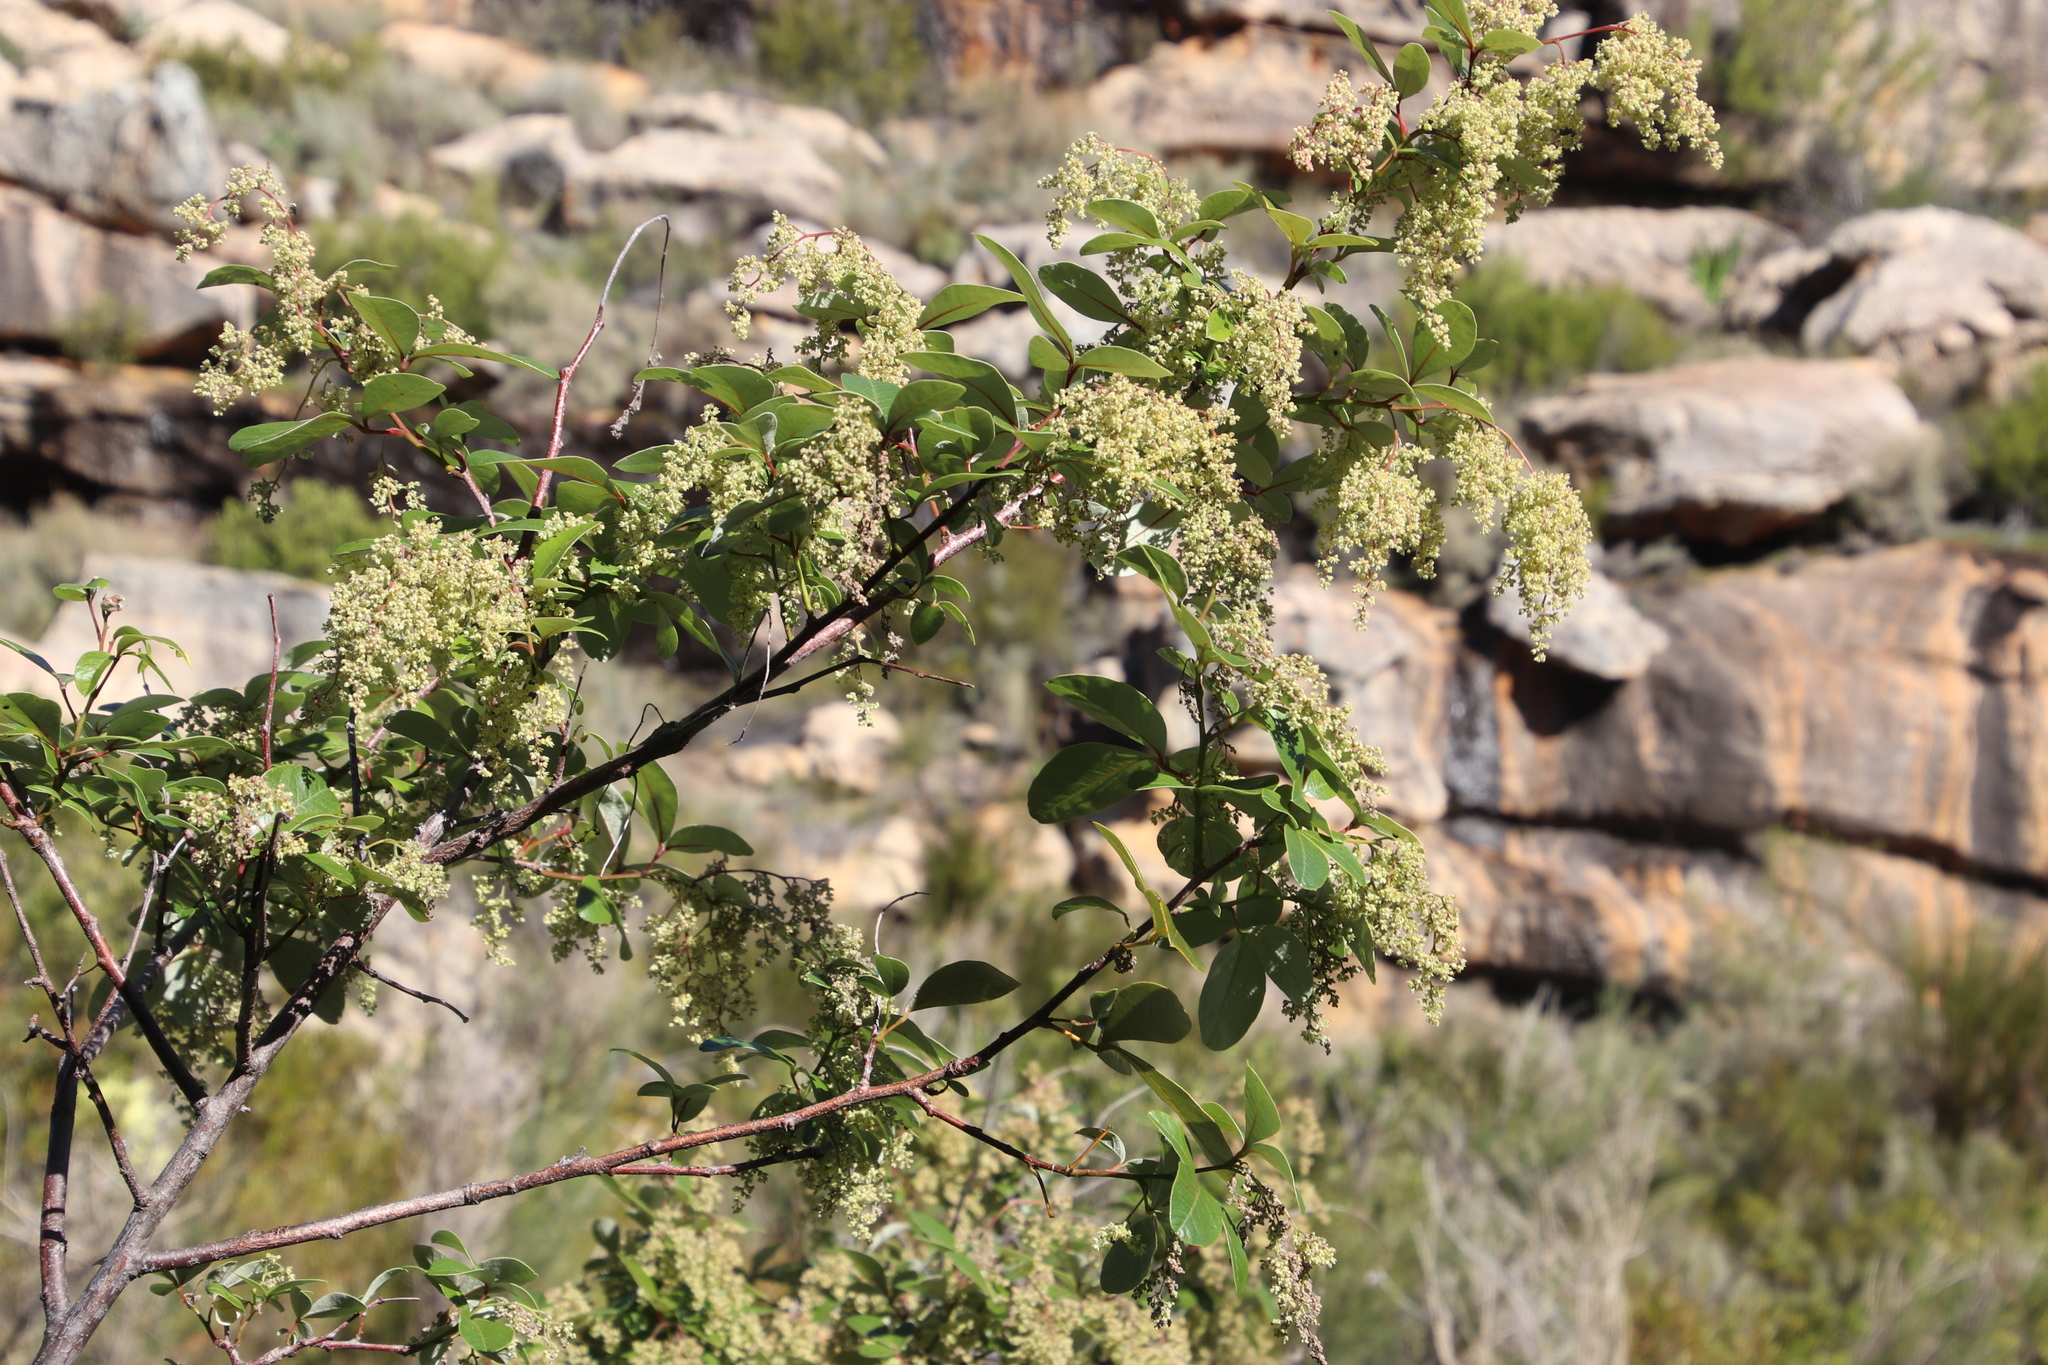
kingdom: Plantae
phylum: Tracheophyta
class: Magnoliopsida
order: Sapindales
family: Anacardiaceae
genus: Searsia
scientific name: Searsia tomentosa
